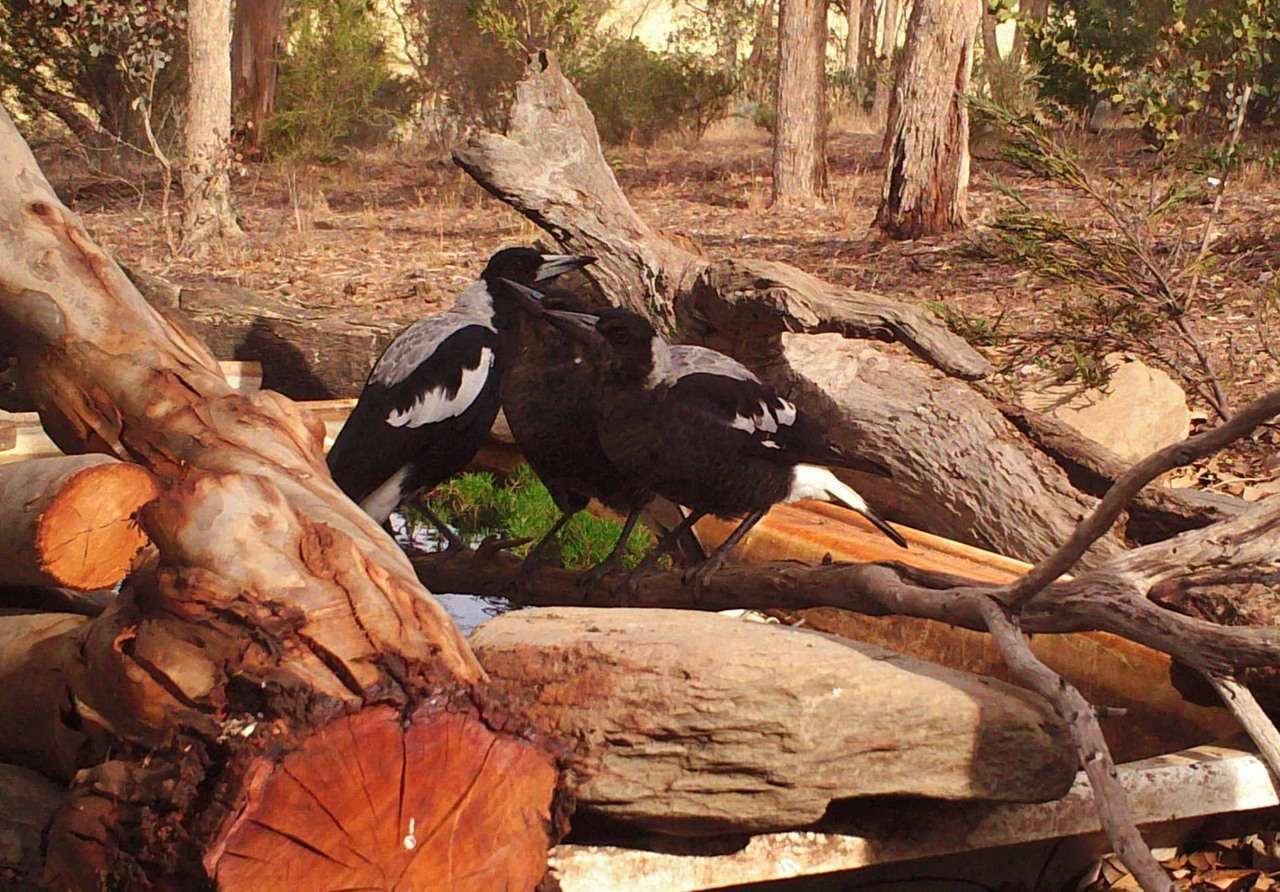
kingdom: Animalia
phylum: Chordata
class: Aves
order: Passeriformes
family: Cracticidae
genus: Gymnorhina
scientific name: Gymnorhina tibicen
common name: Australian magpie
